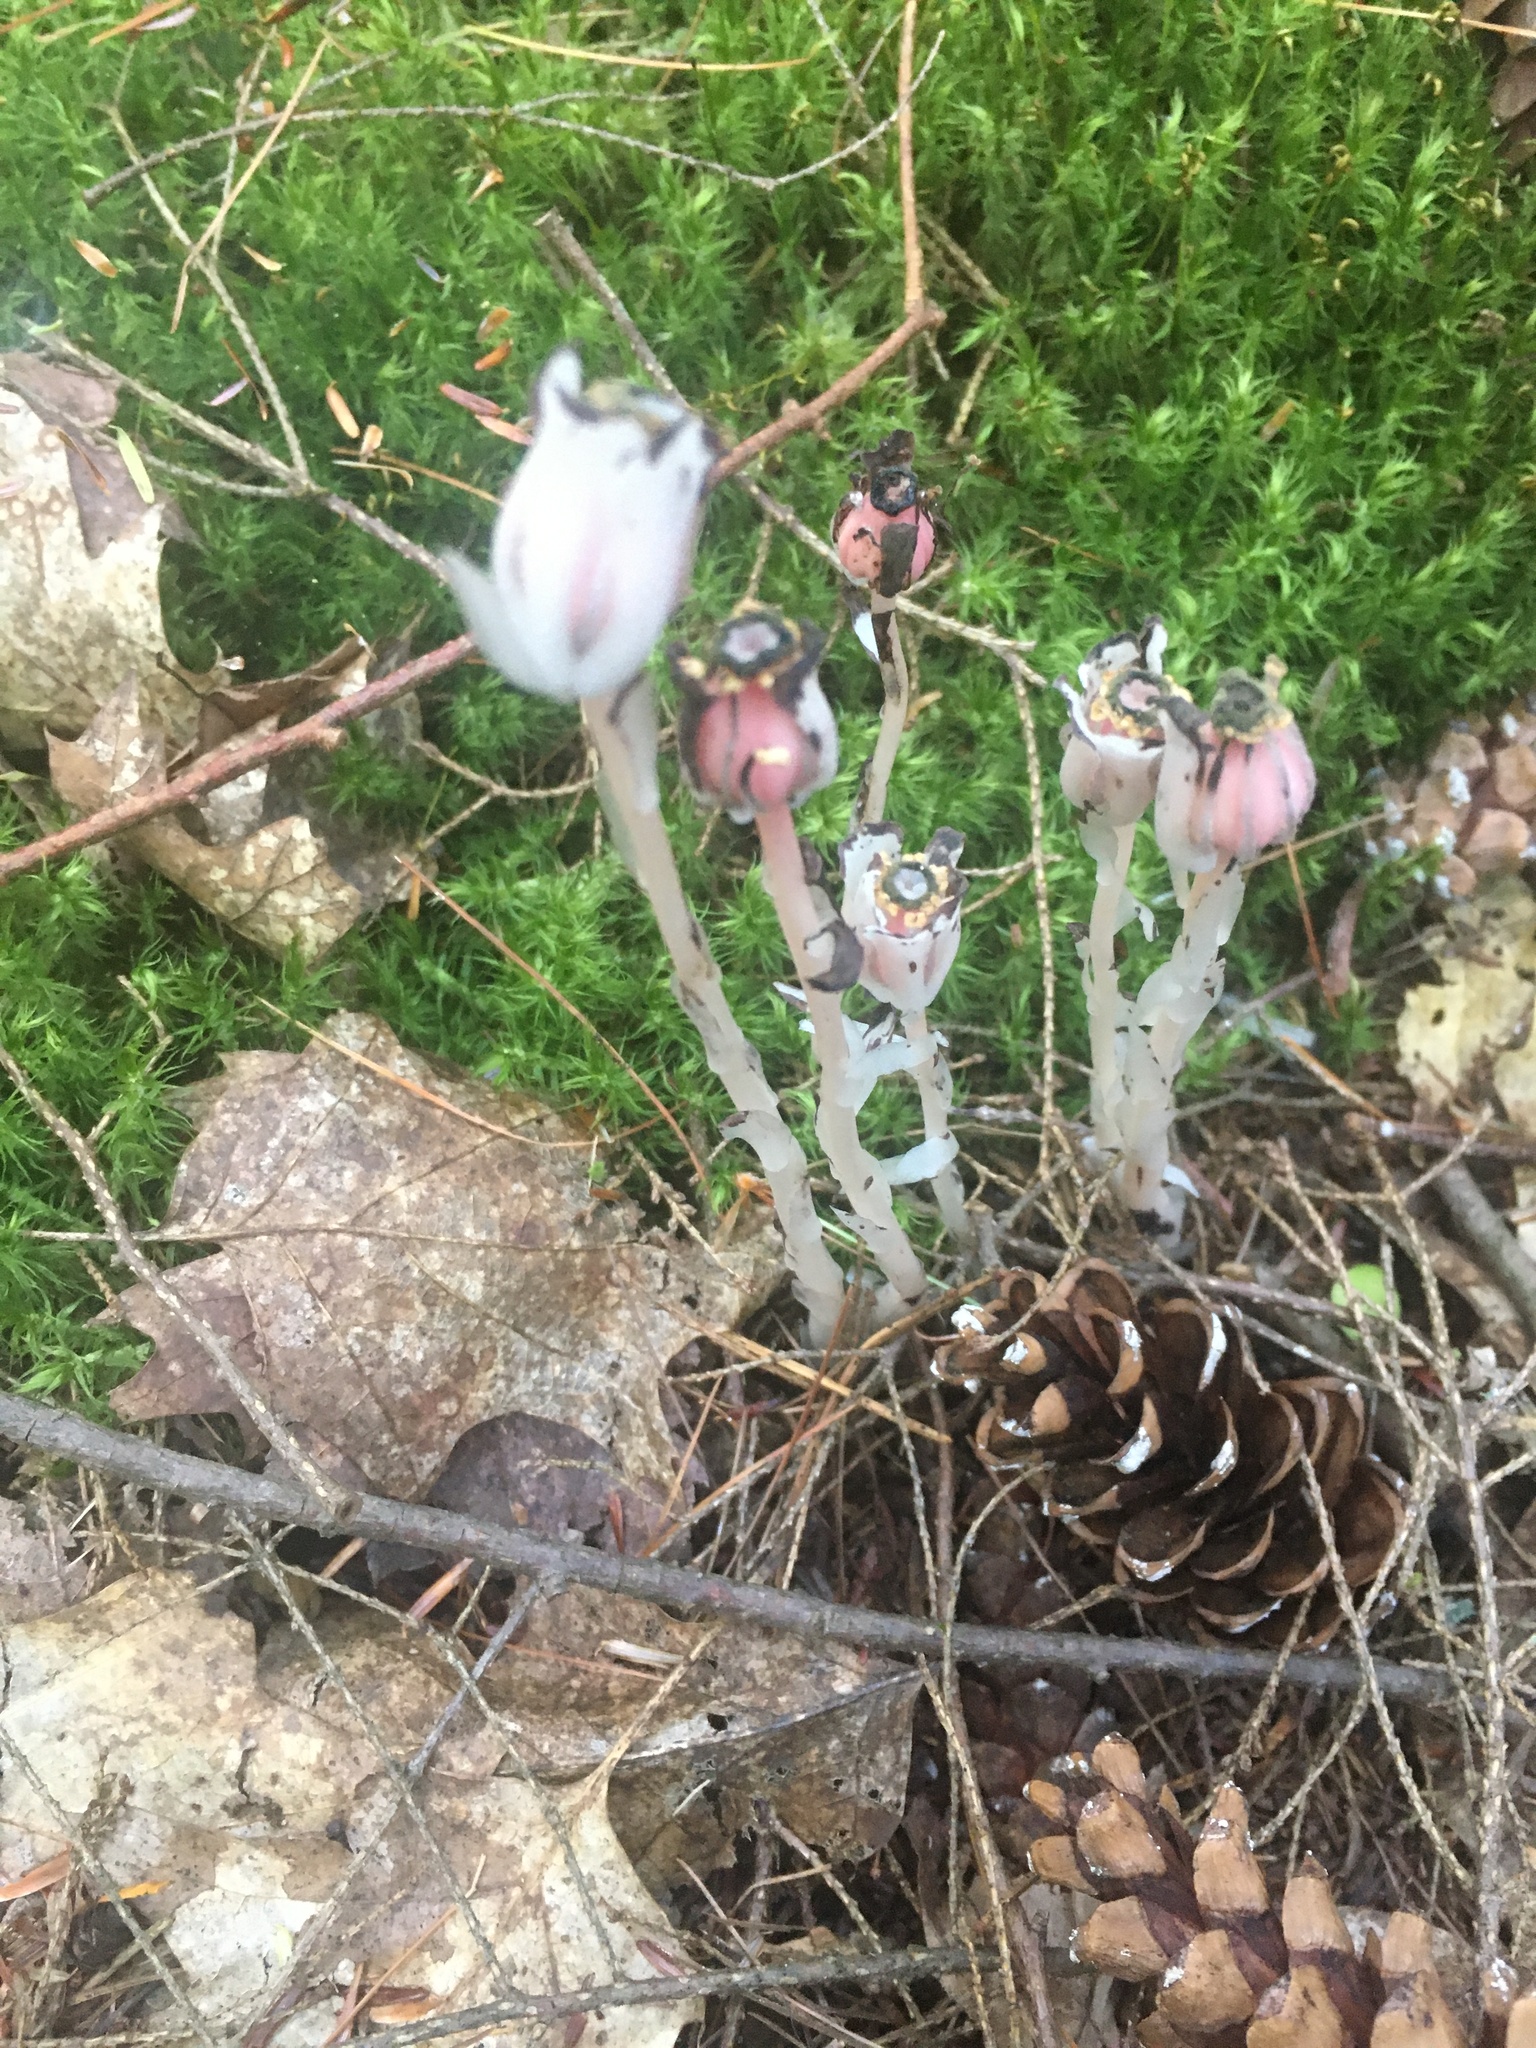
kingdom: Plantae
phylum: Tracheophyta
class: Magnoliopsida
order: Ericales
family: Ericaceae
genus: Monotropa
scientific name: Monotropa uniflora
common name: Convulsion root
